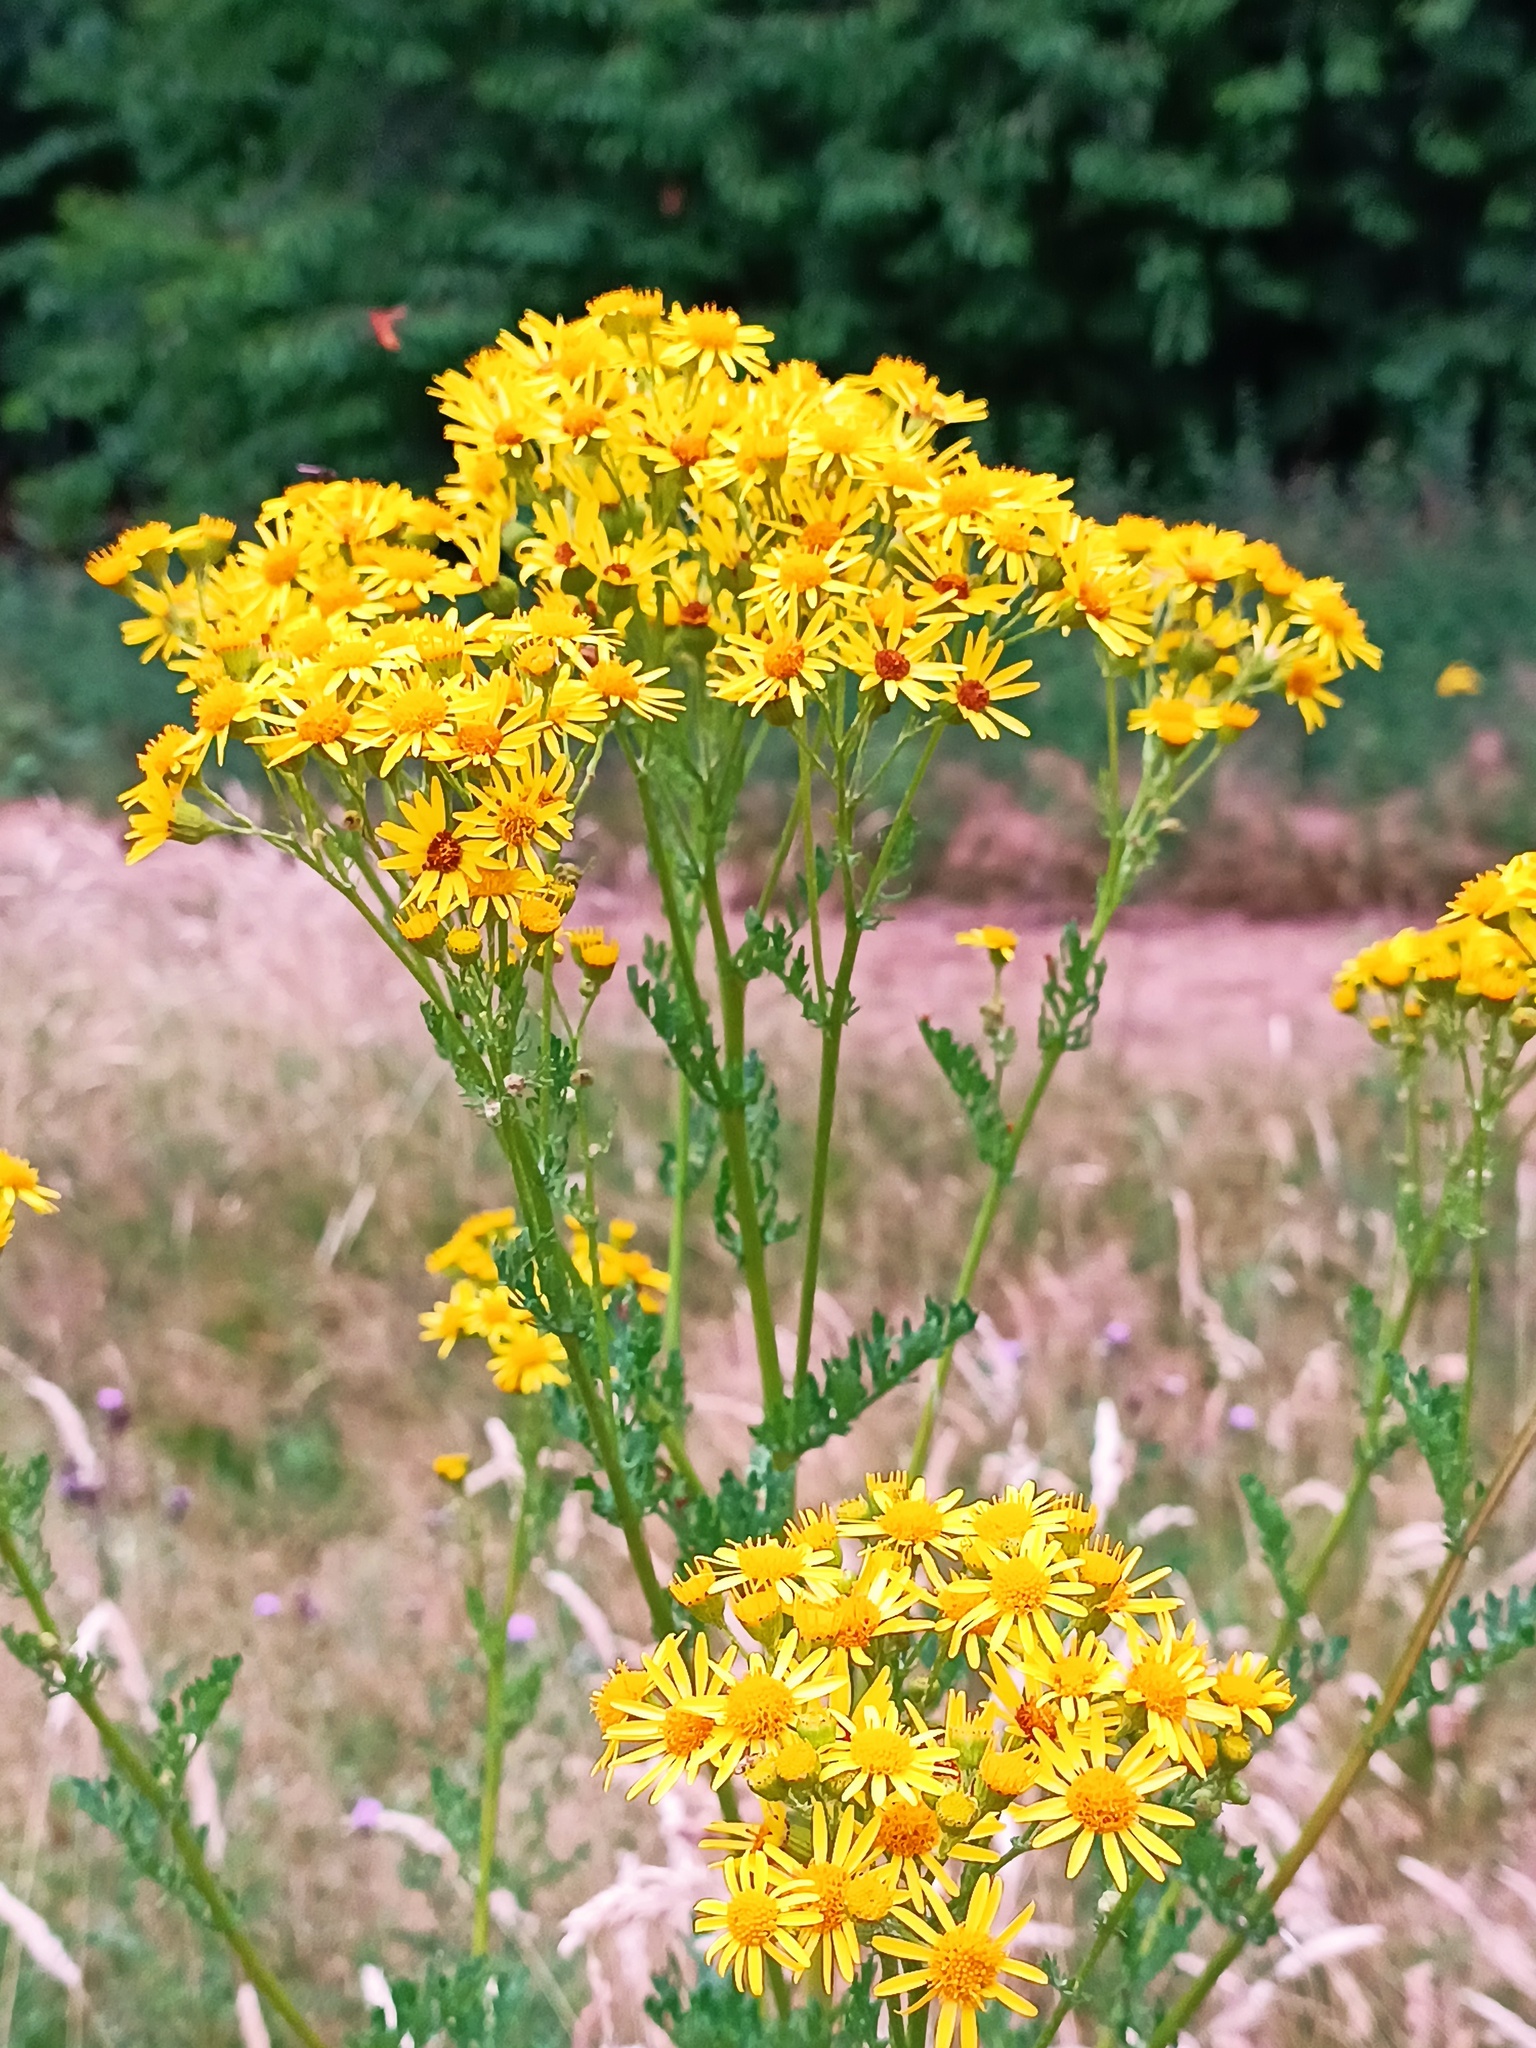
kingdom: Plantae
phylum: Tracheophyta
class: Magnoliopsida
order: Asterales
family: Asteraceae
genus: Jacobaea
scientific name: Jacobaea vulgaris
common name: Stinking willie
